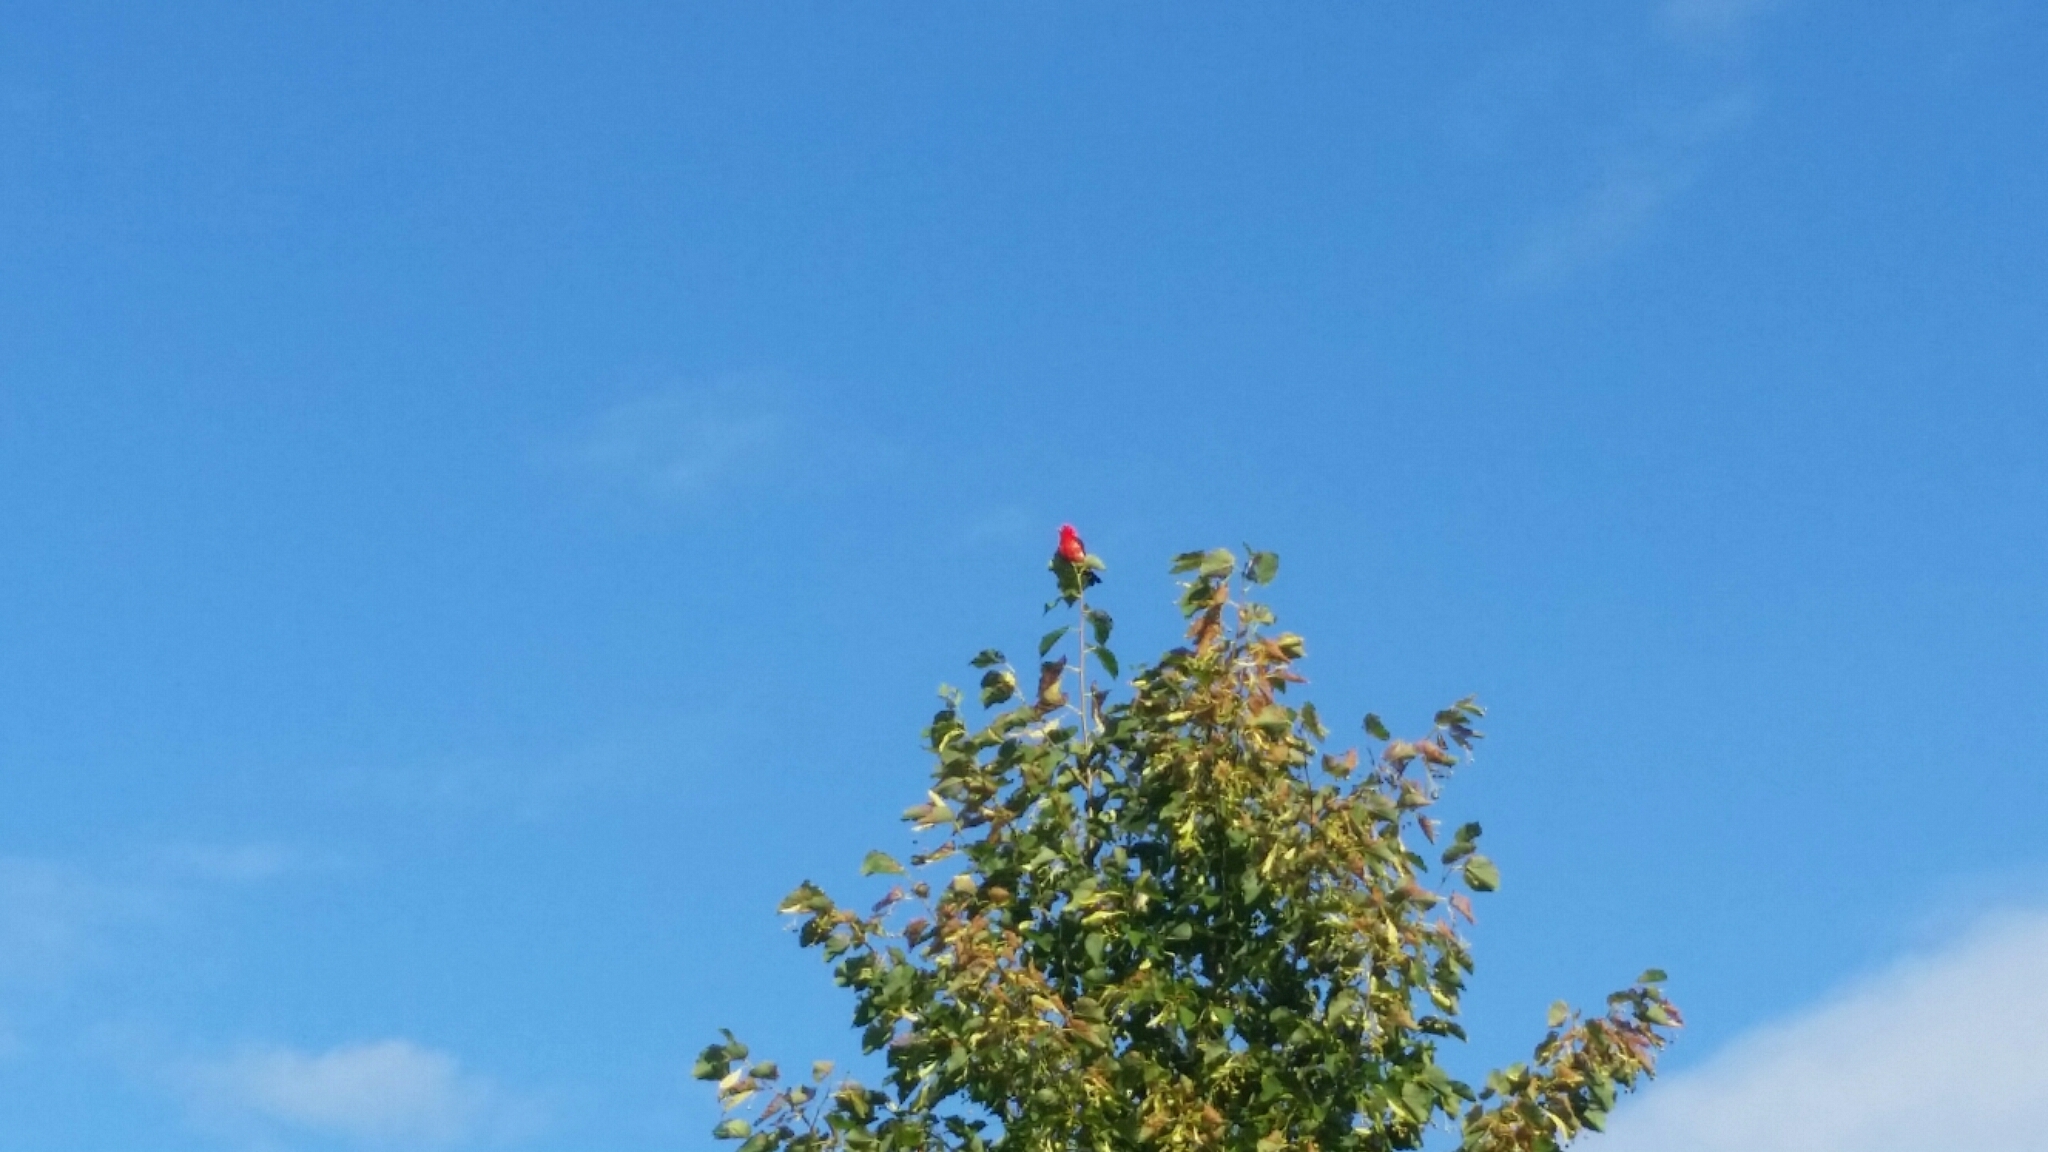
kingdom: Animalia
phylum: Chordata
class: Aves
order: Passeriformes
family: Cardinalidae
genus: Piranga
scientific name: Piranga olivacea
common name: Scarlet tanager
